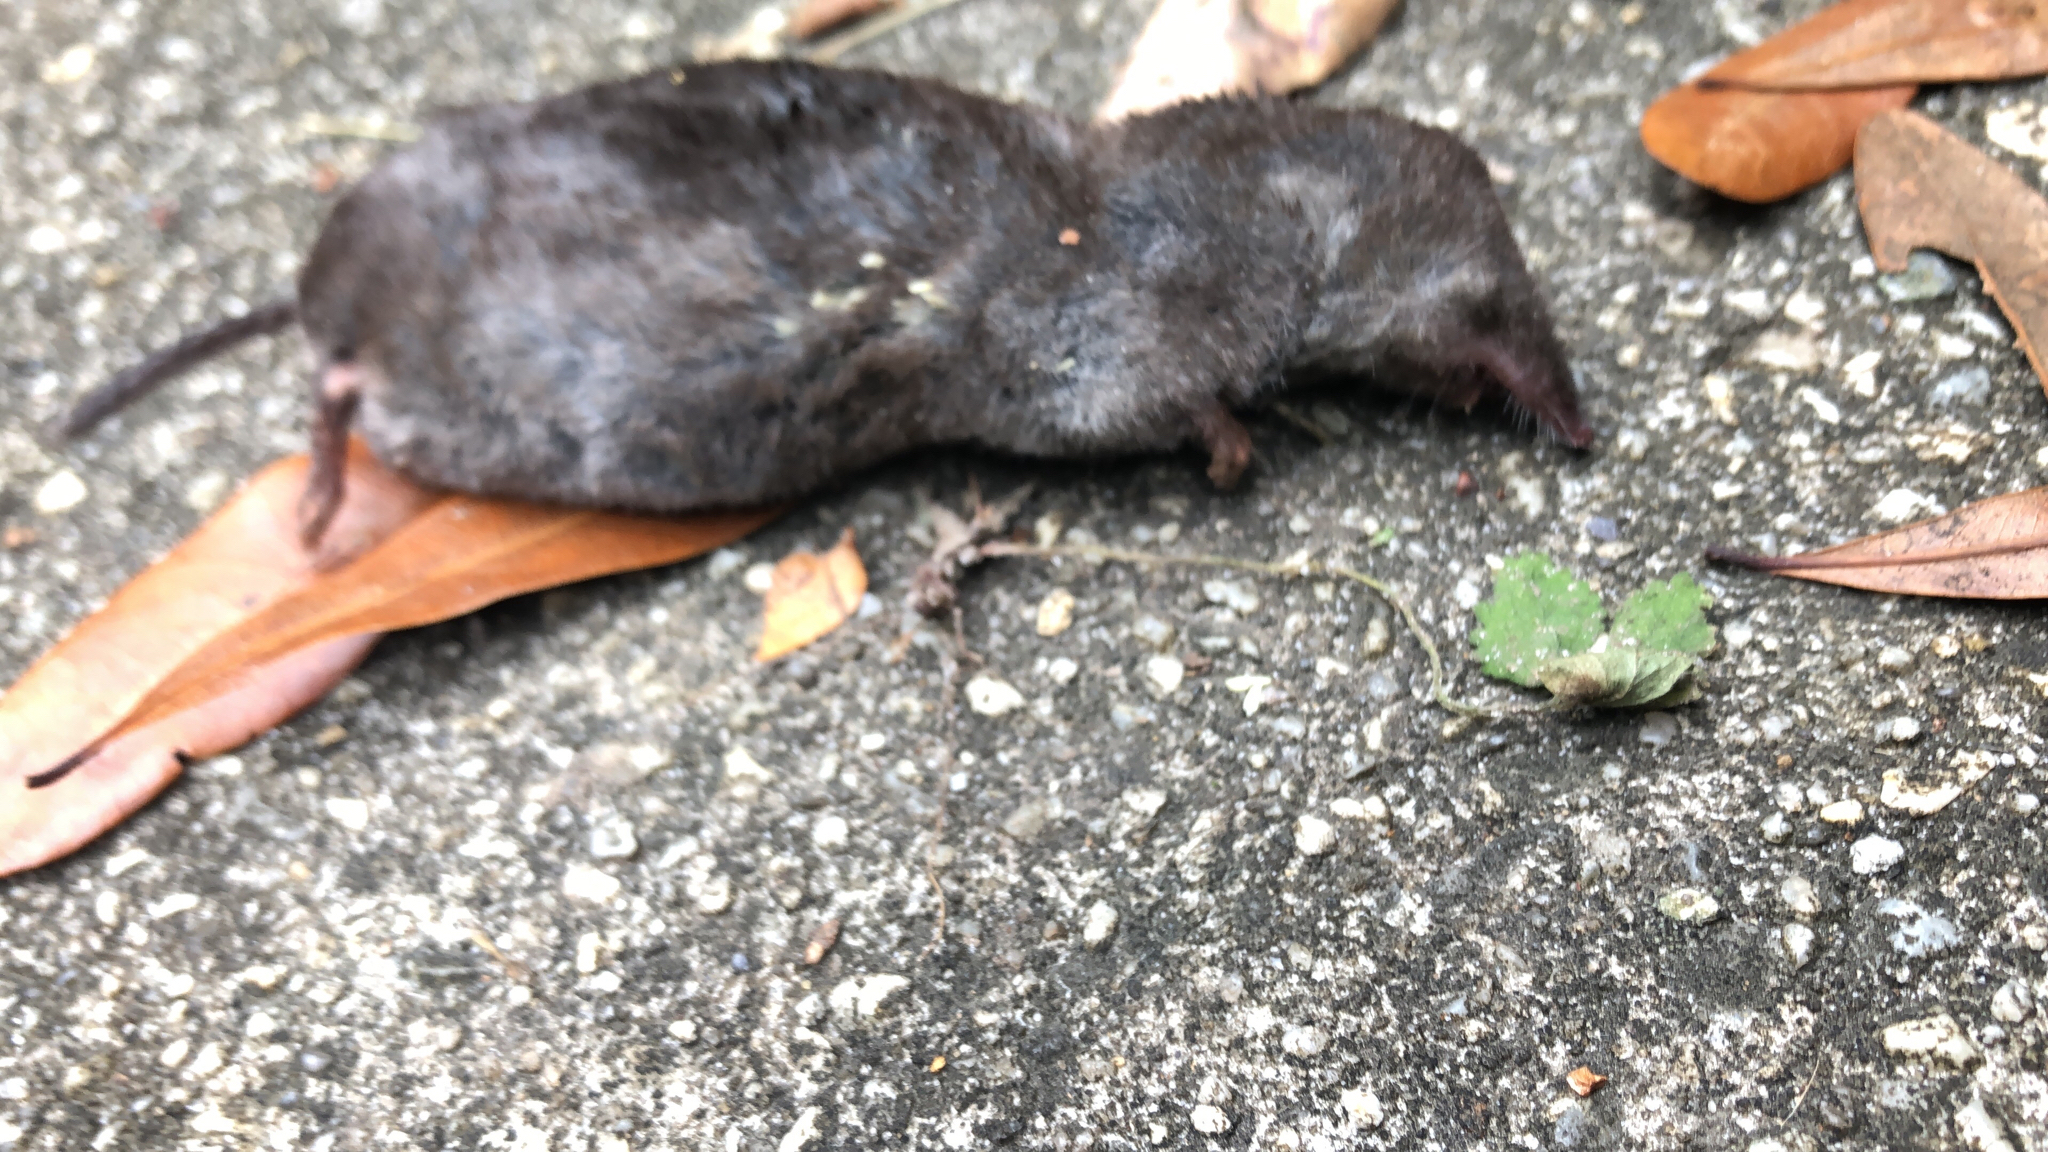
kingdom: Animalia
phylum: Chordata
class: Mammalia
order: Soricomorpha
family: Soricidae
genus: Blarina
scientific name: Blarina brevicauda
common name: Northern short-tailed shrew
